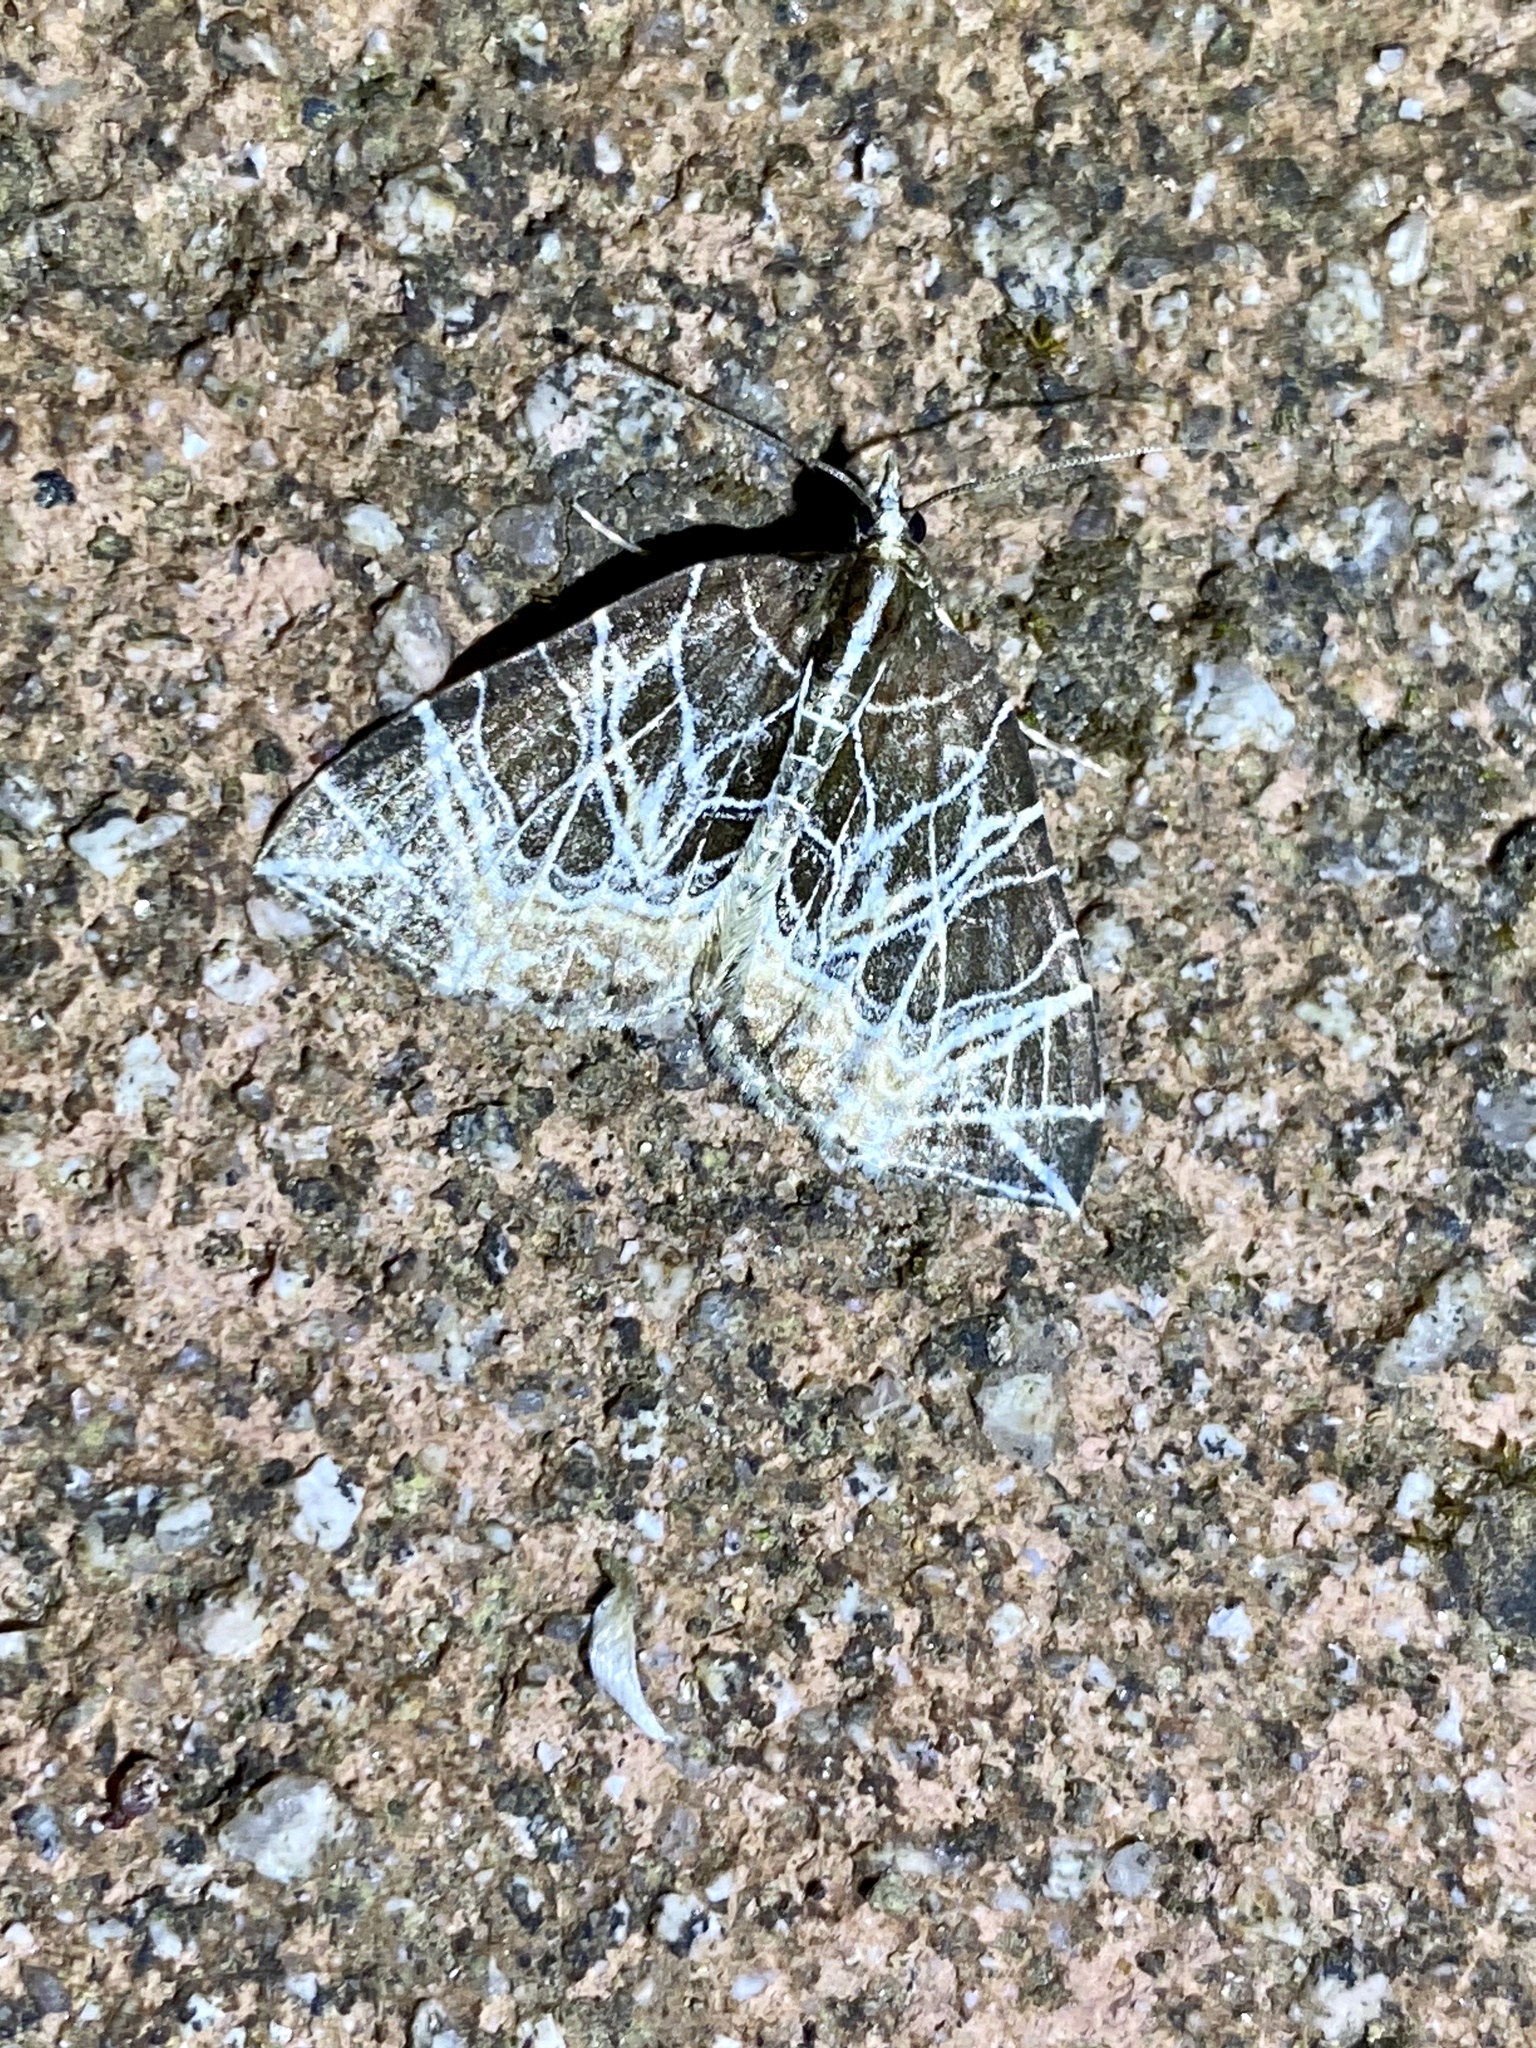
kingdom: Animalia
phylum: Arthropoda
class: Insecta
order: Lepidoptera
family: Geometridae
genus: Evecliptopera
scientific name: Evecliptopera illitata
